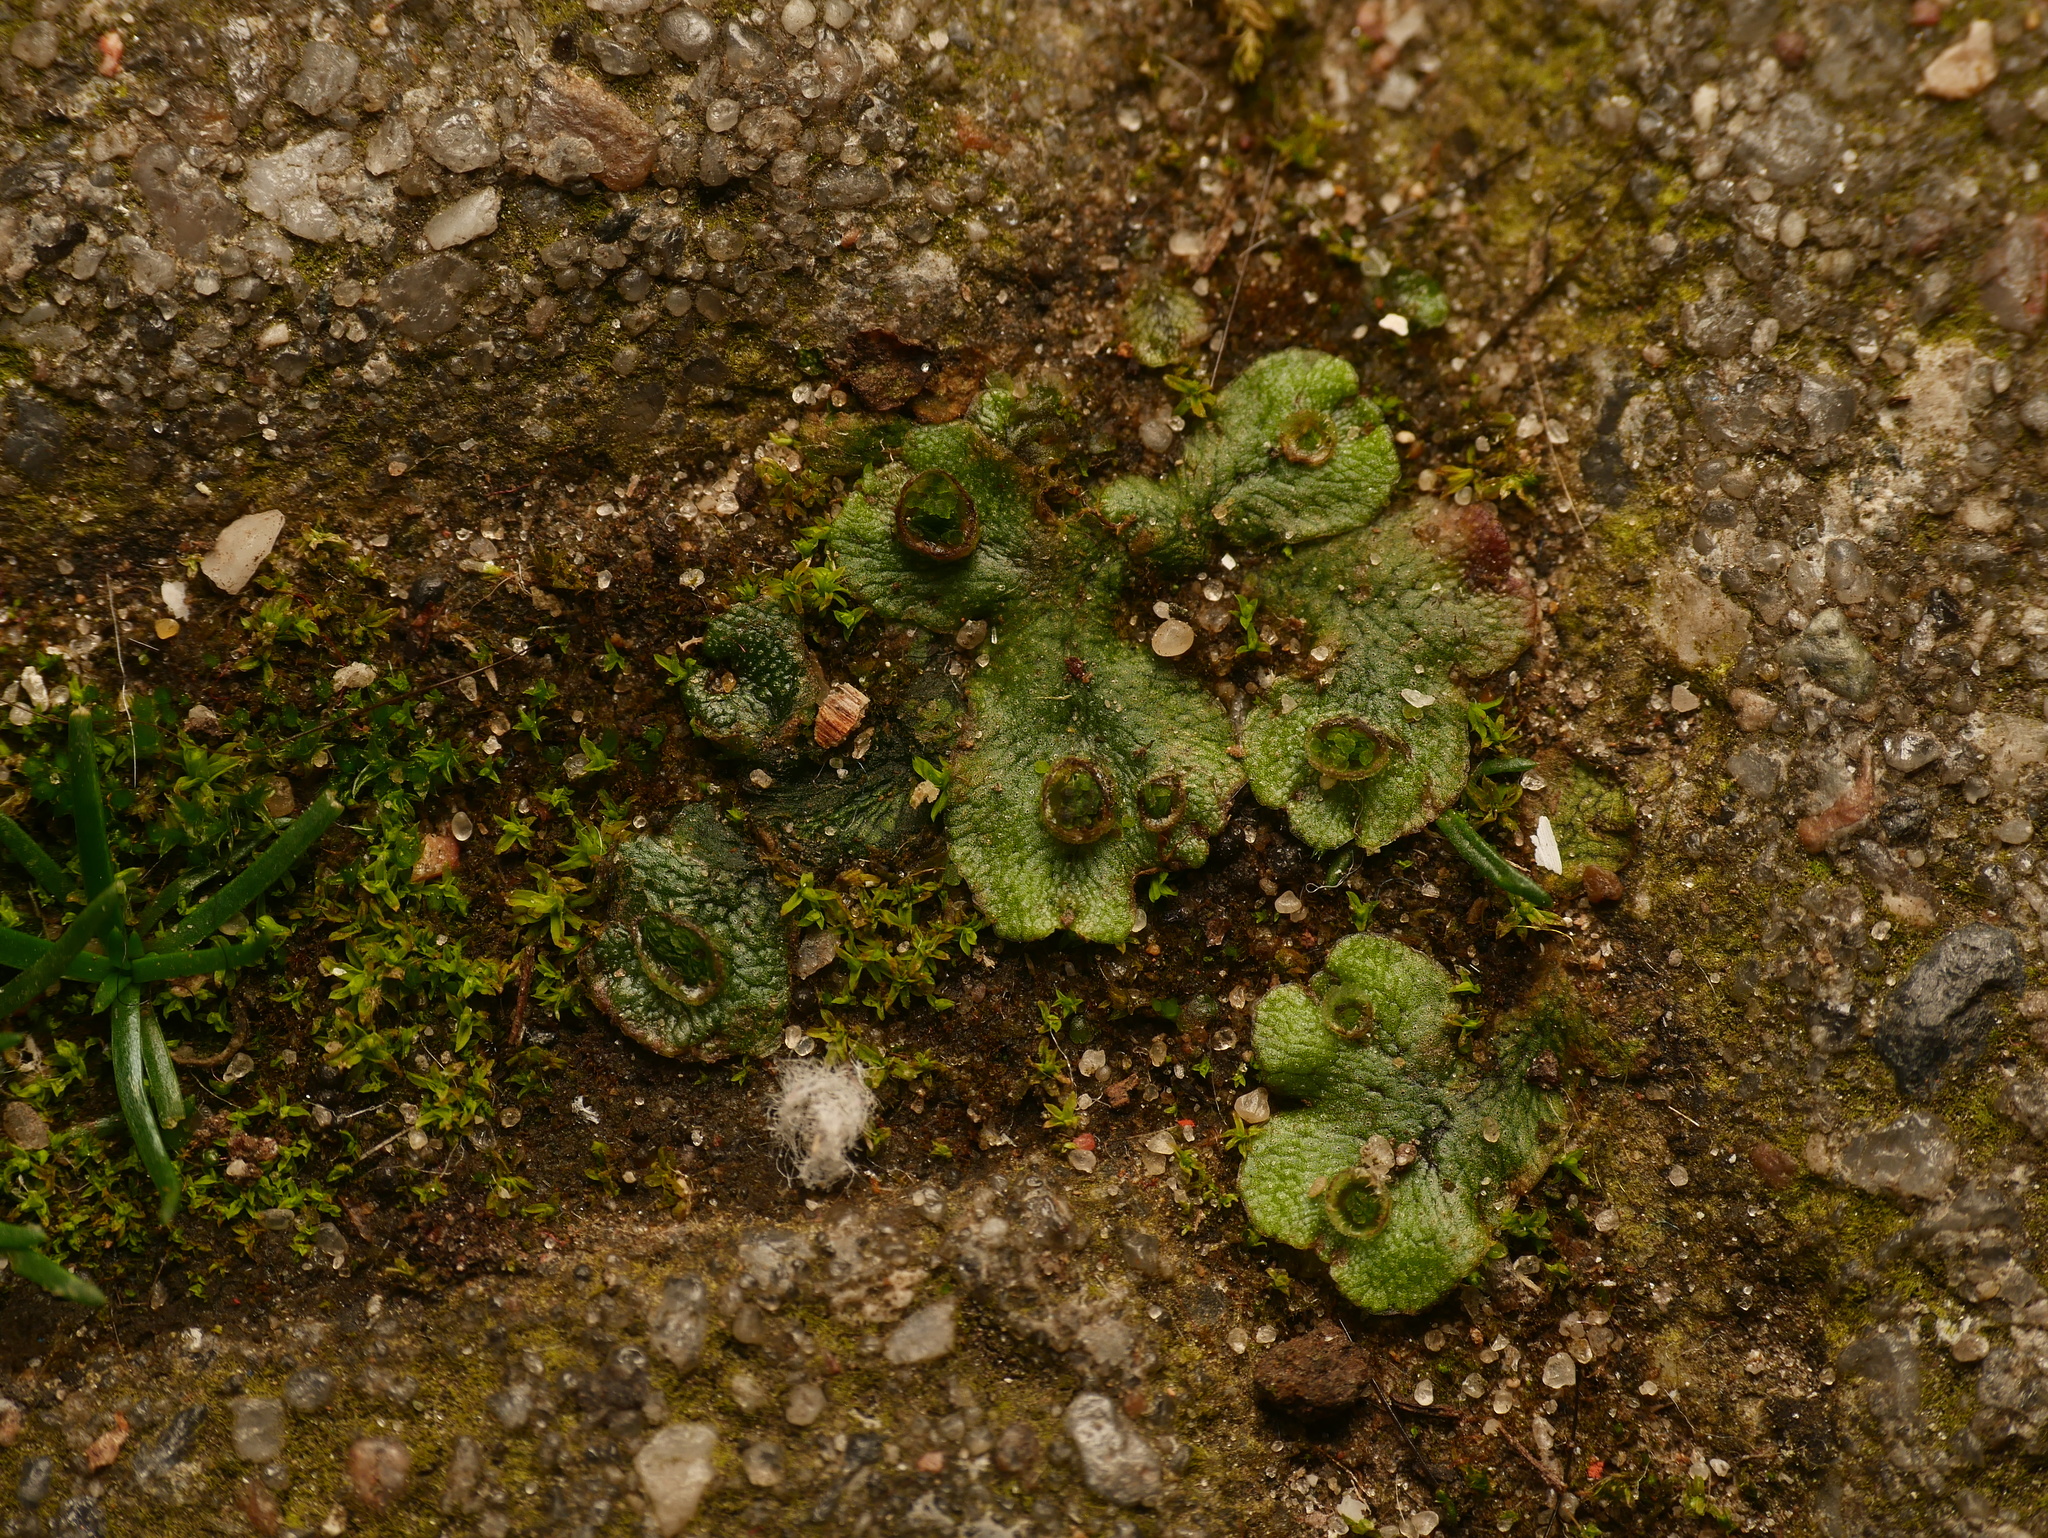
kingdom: Plantae
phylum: Marchantiophyta
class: Marchantiopsida
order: Marchantiales
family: Marchantiaceae
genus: Marchantia
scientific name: Marchantia polymorpha
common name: Common liverwort
